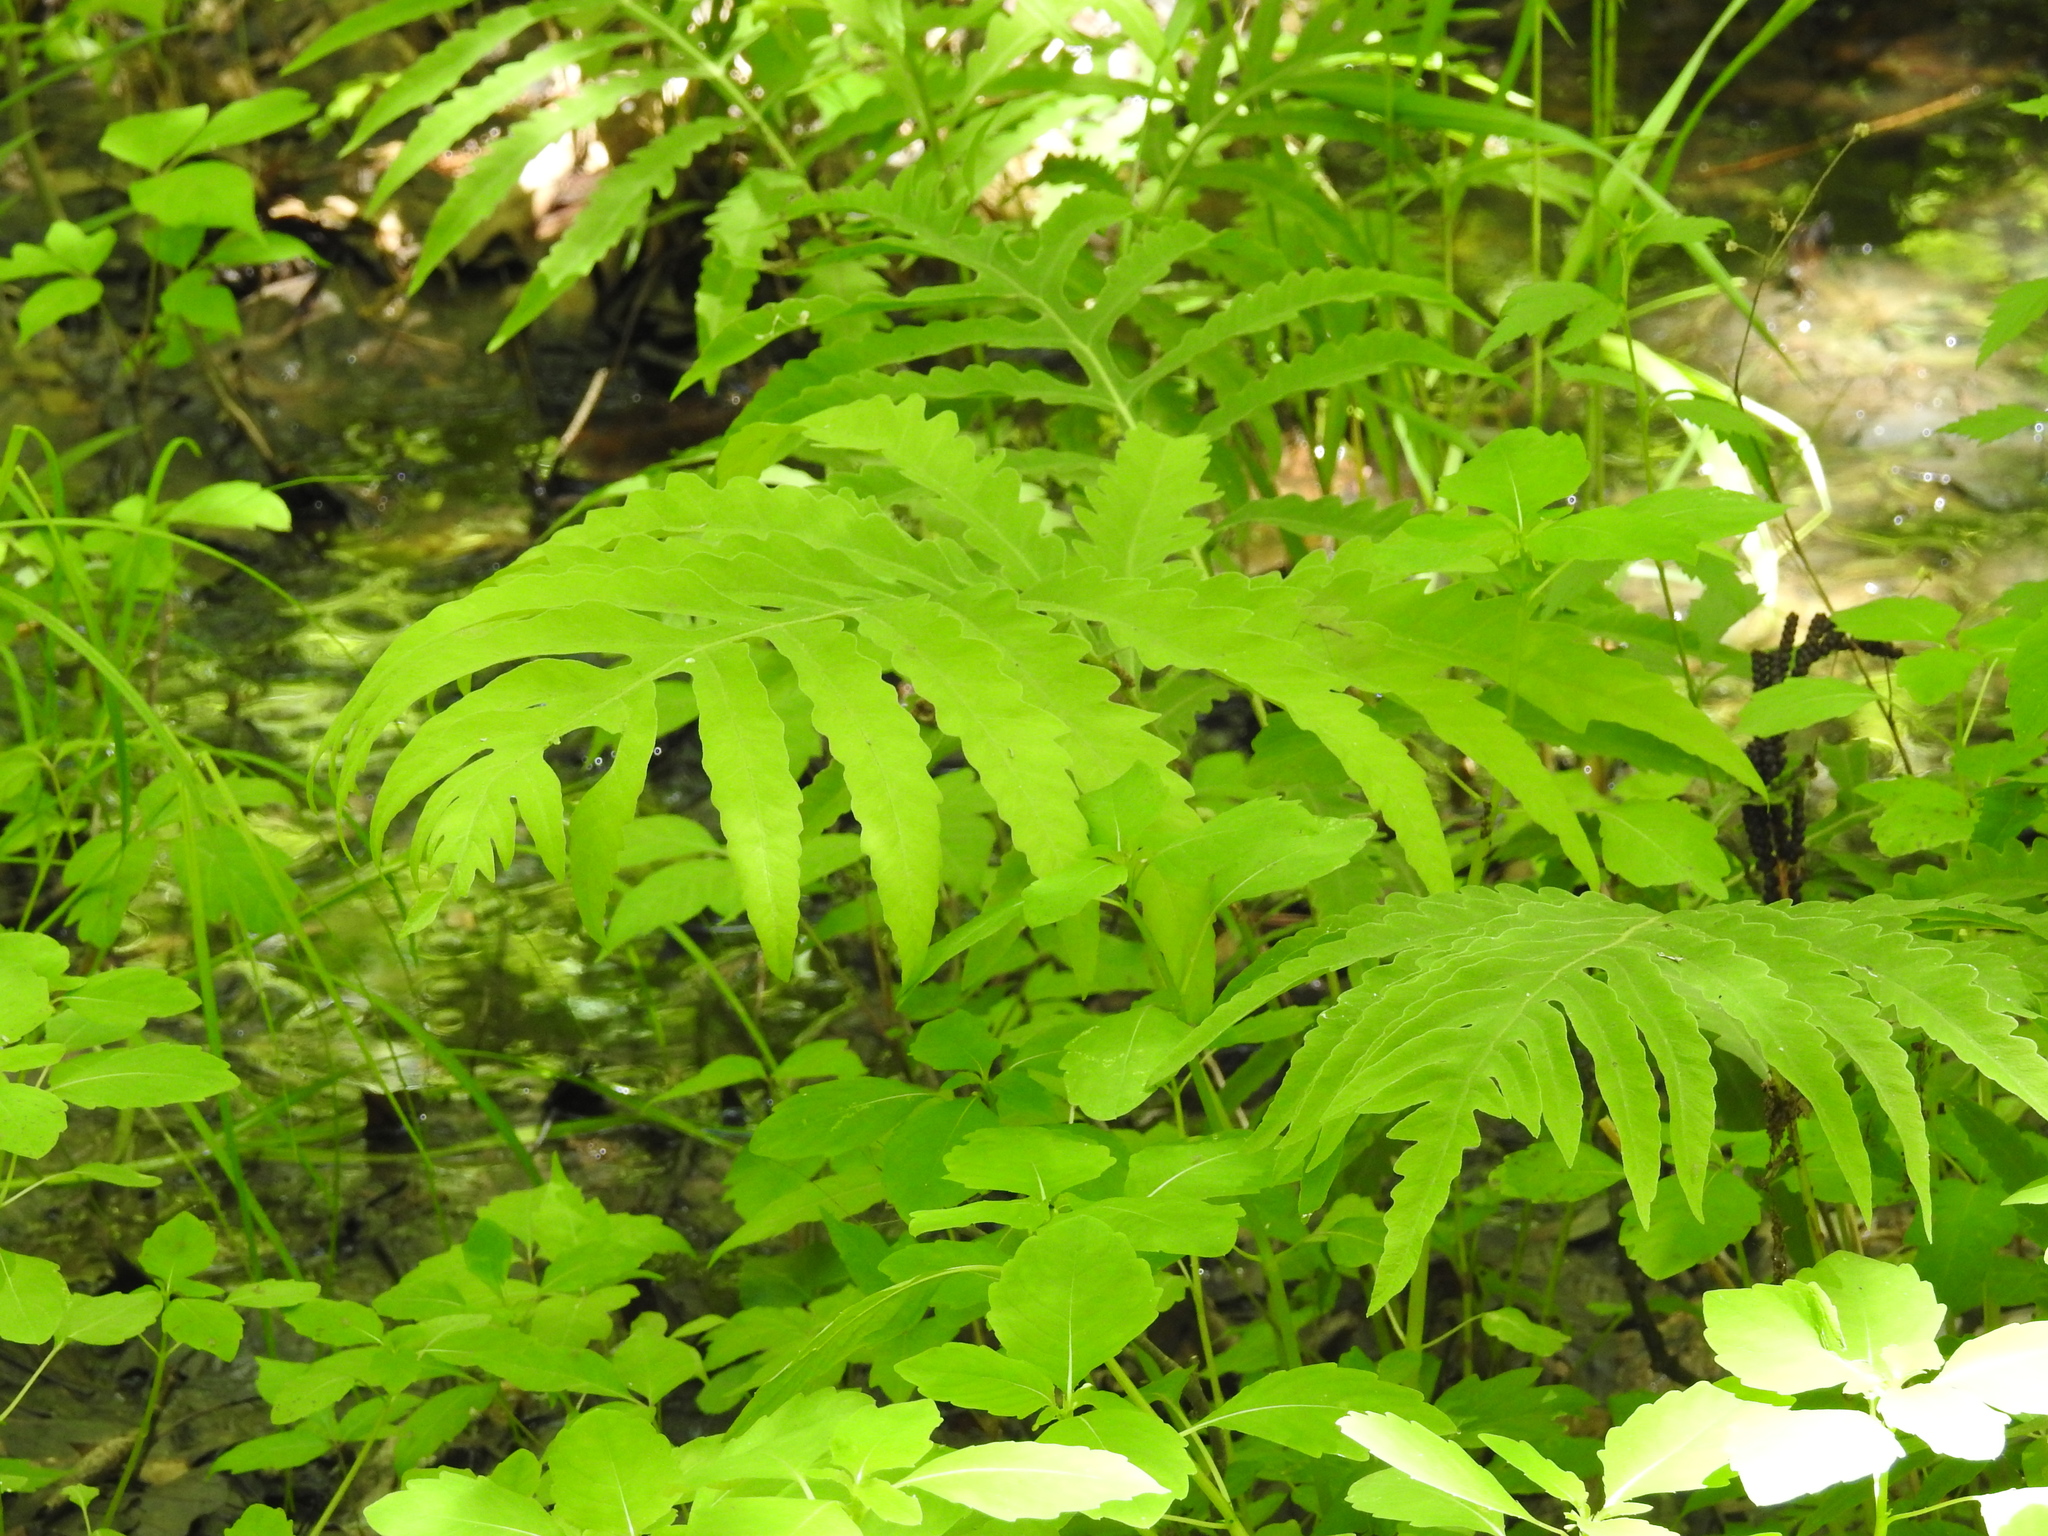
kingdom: Plantae
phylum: Tracheophyta
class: Polypodiopsida
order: Polypodiales
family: Onocleaceae
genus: Onoclea
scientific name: Onoclea sensibilis
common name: Sensitive fern
